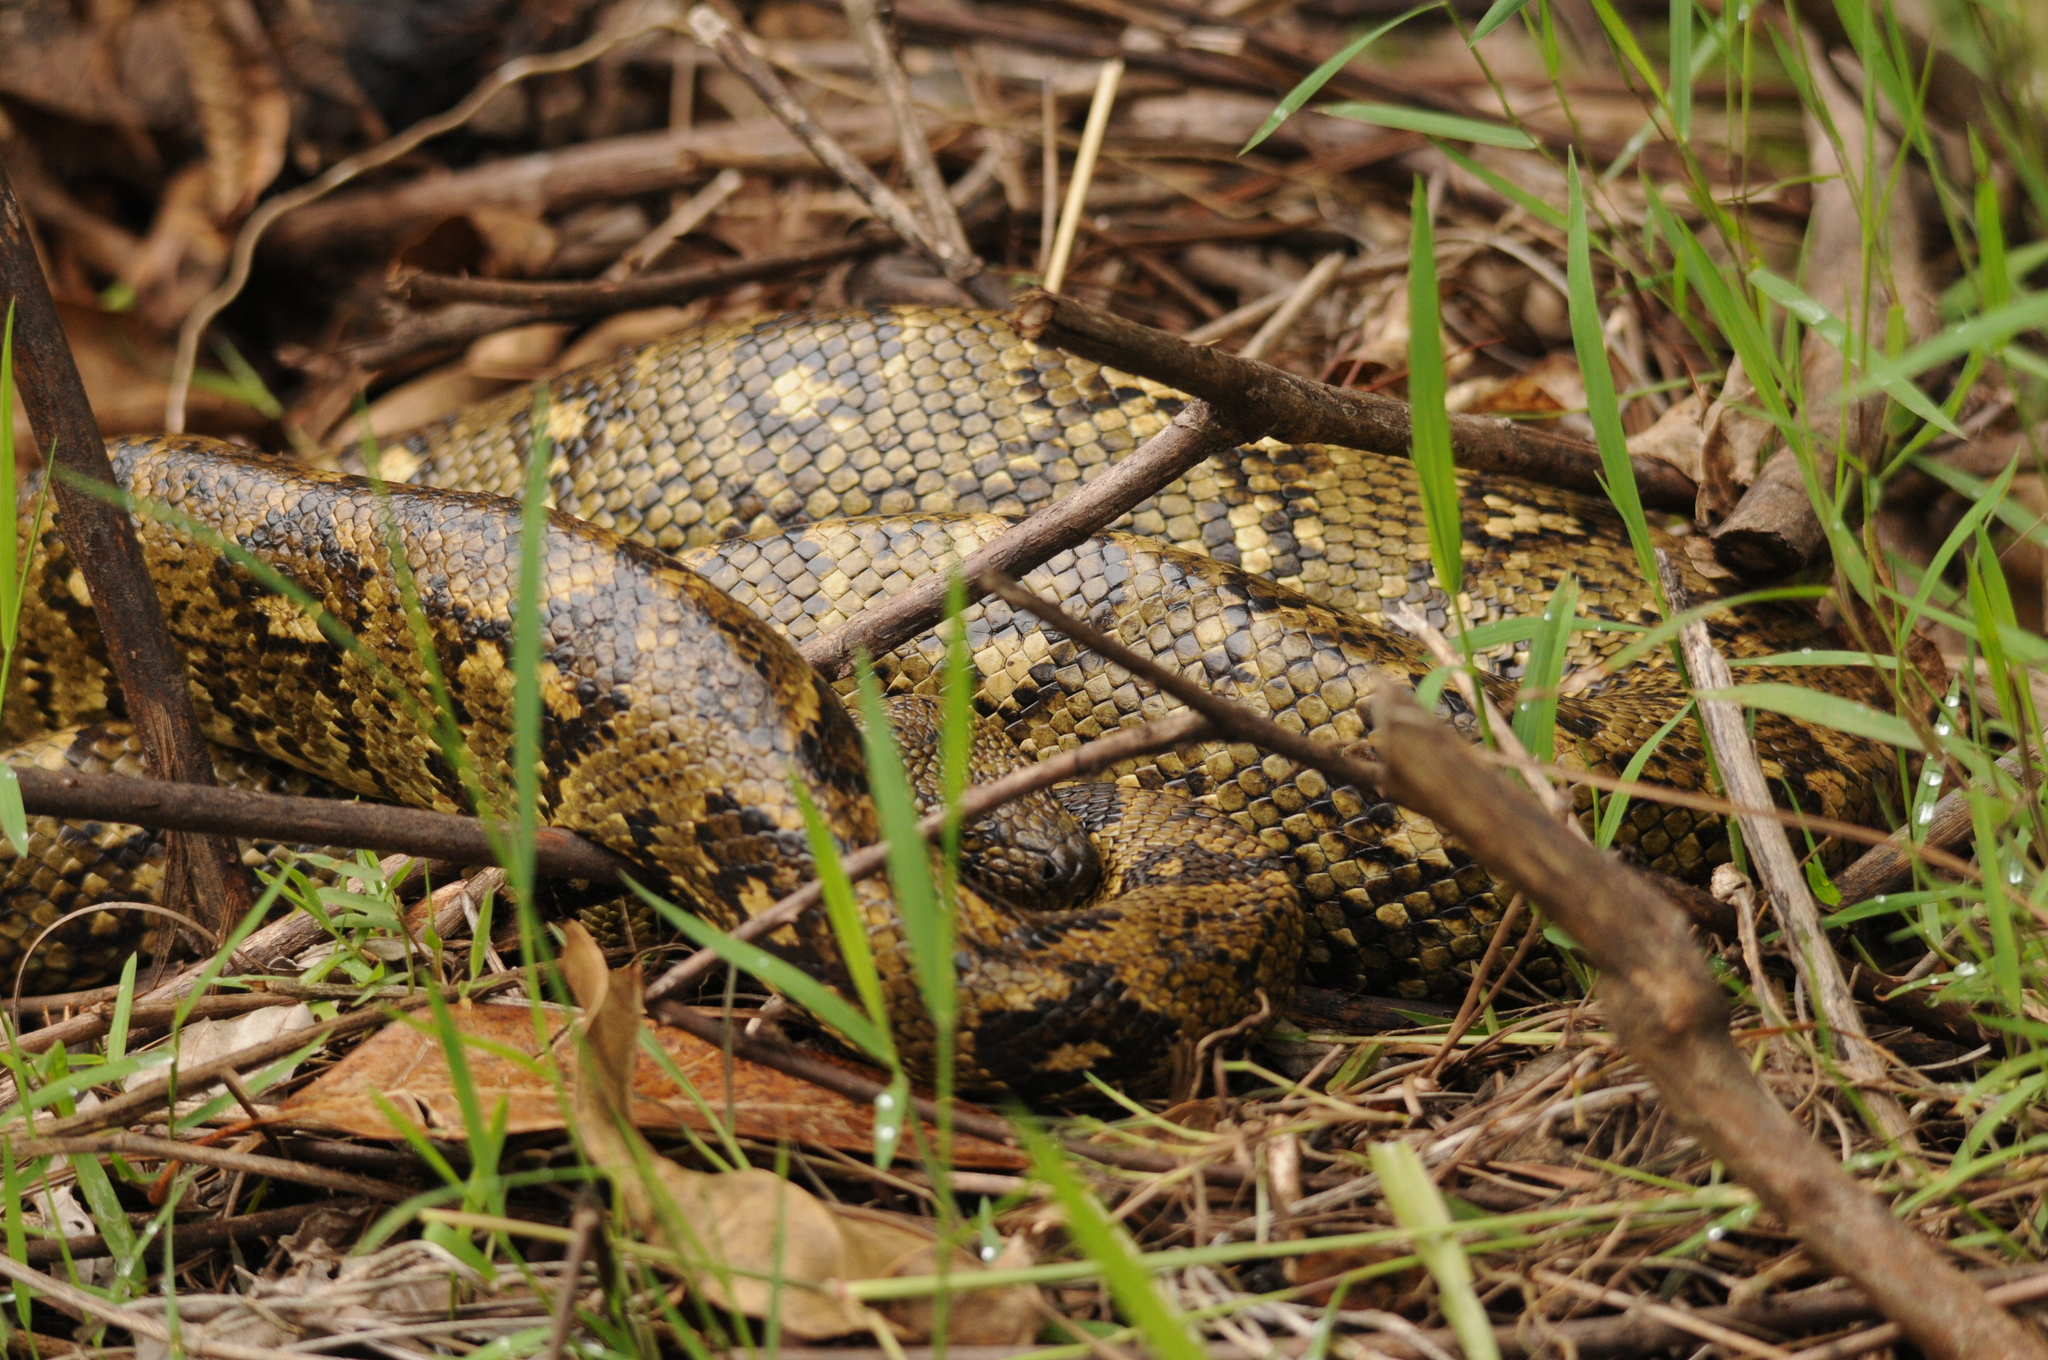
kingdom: Animalia
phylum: Chordata
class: Squamata
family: Boidae
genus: Sanzinia
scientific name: Sanzinia madagascariensis
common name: Madagascar tree boa
